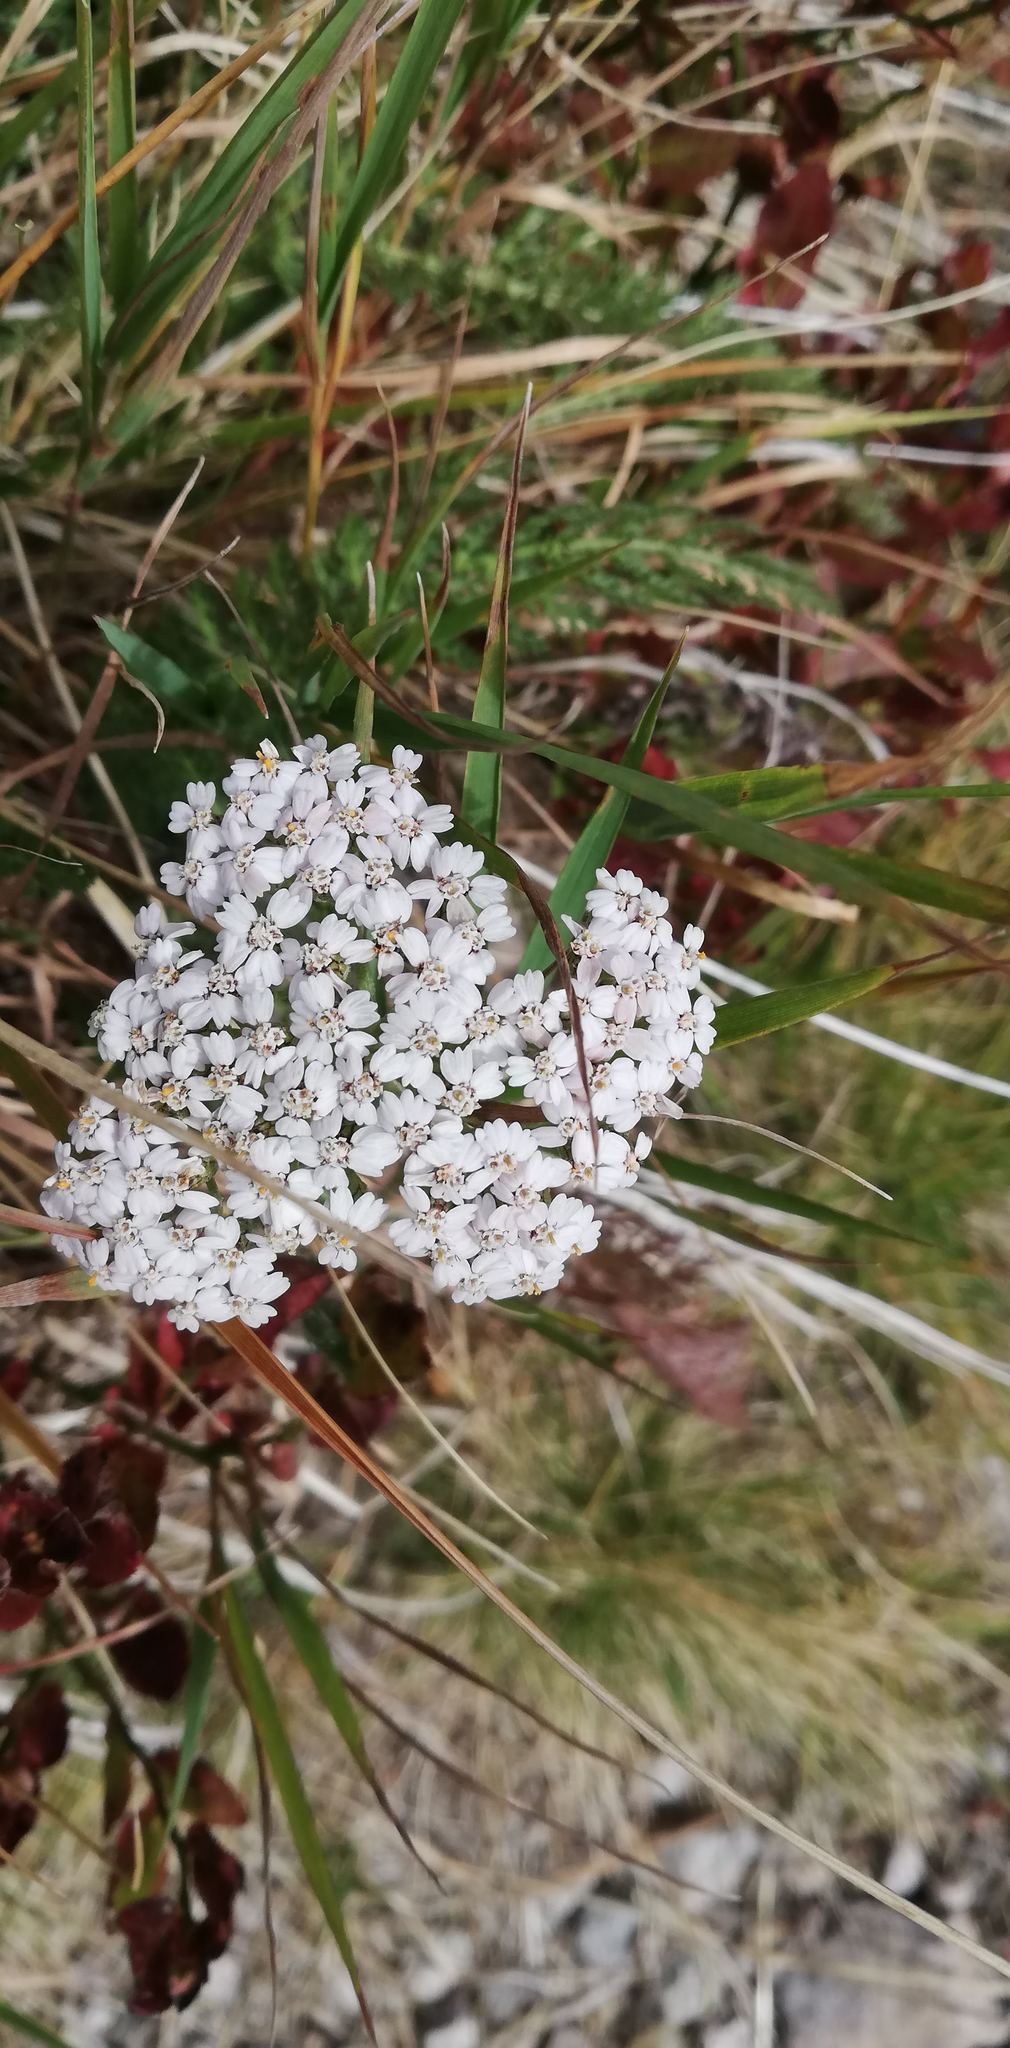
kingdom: Plantae
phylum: Tracheophyta
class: Magnoliopsida
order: Asterales
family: Asteraceae
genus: Achillea
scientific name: Achillea millefolium
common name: Yarrow
